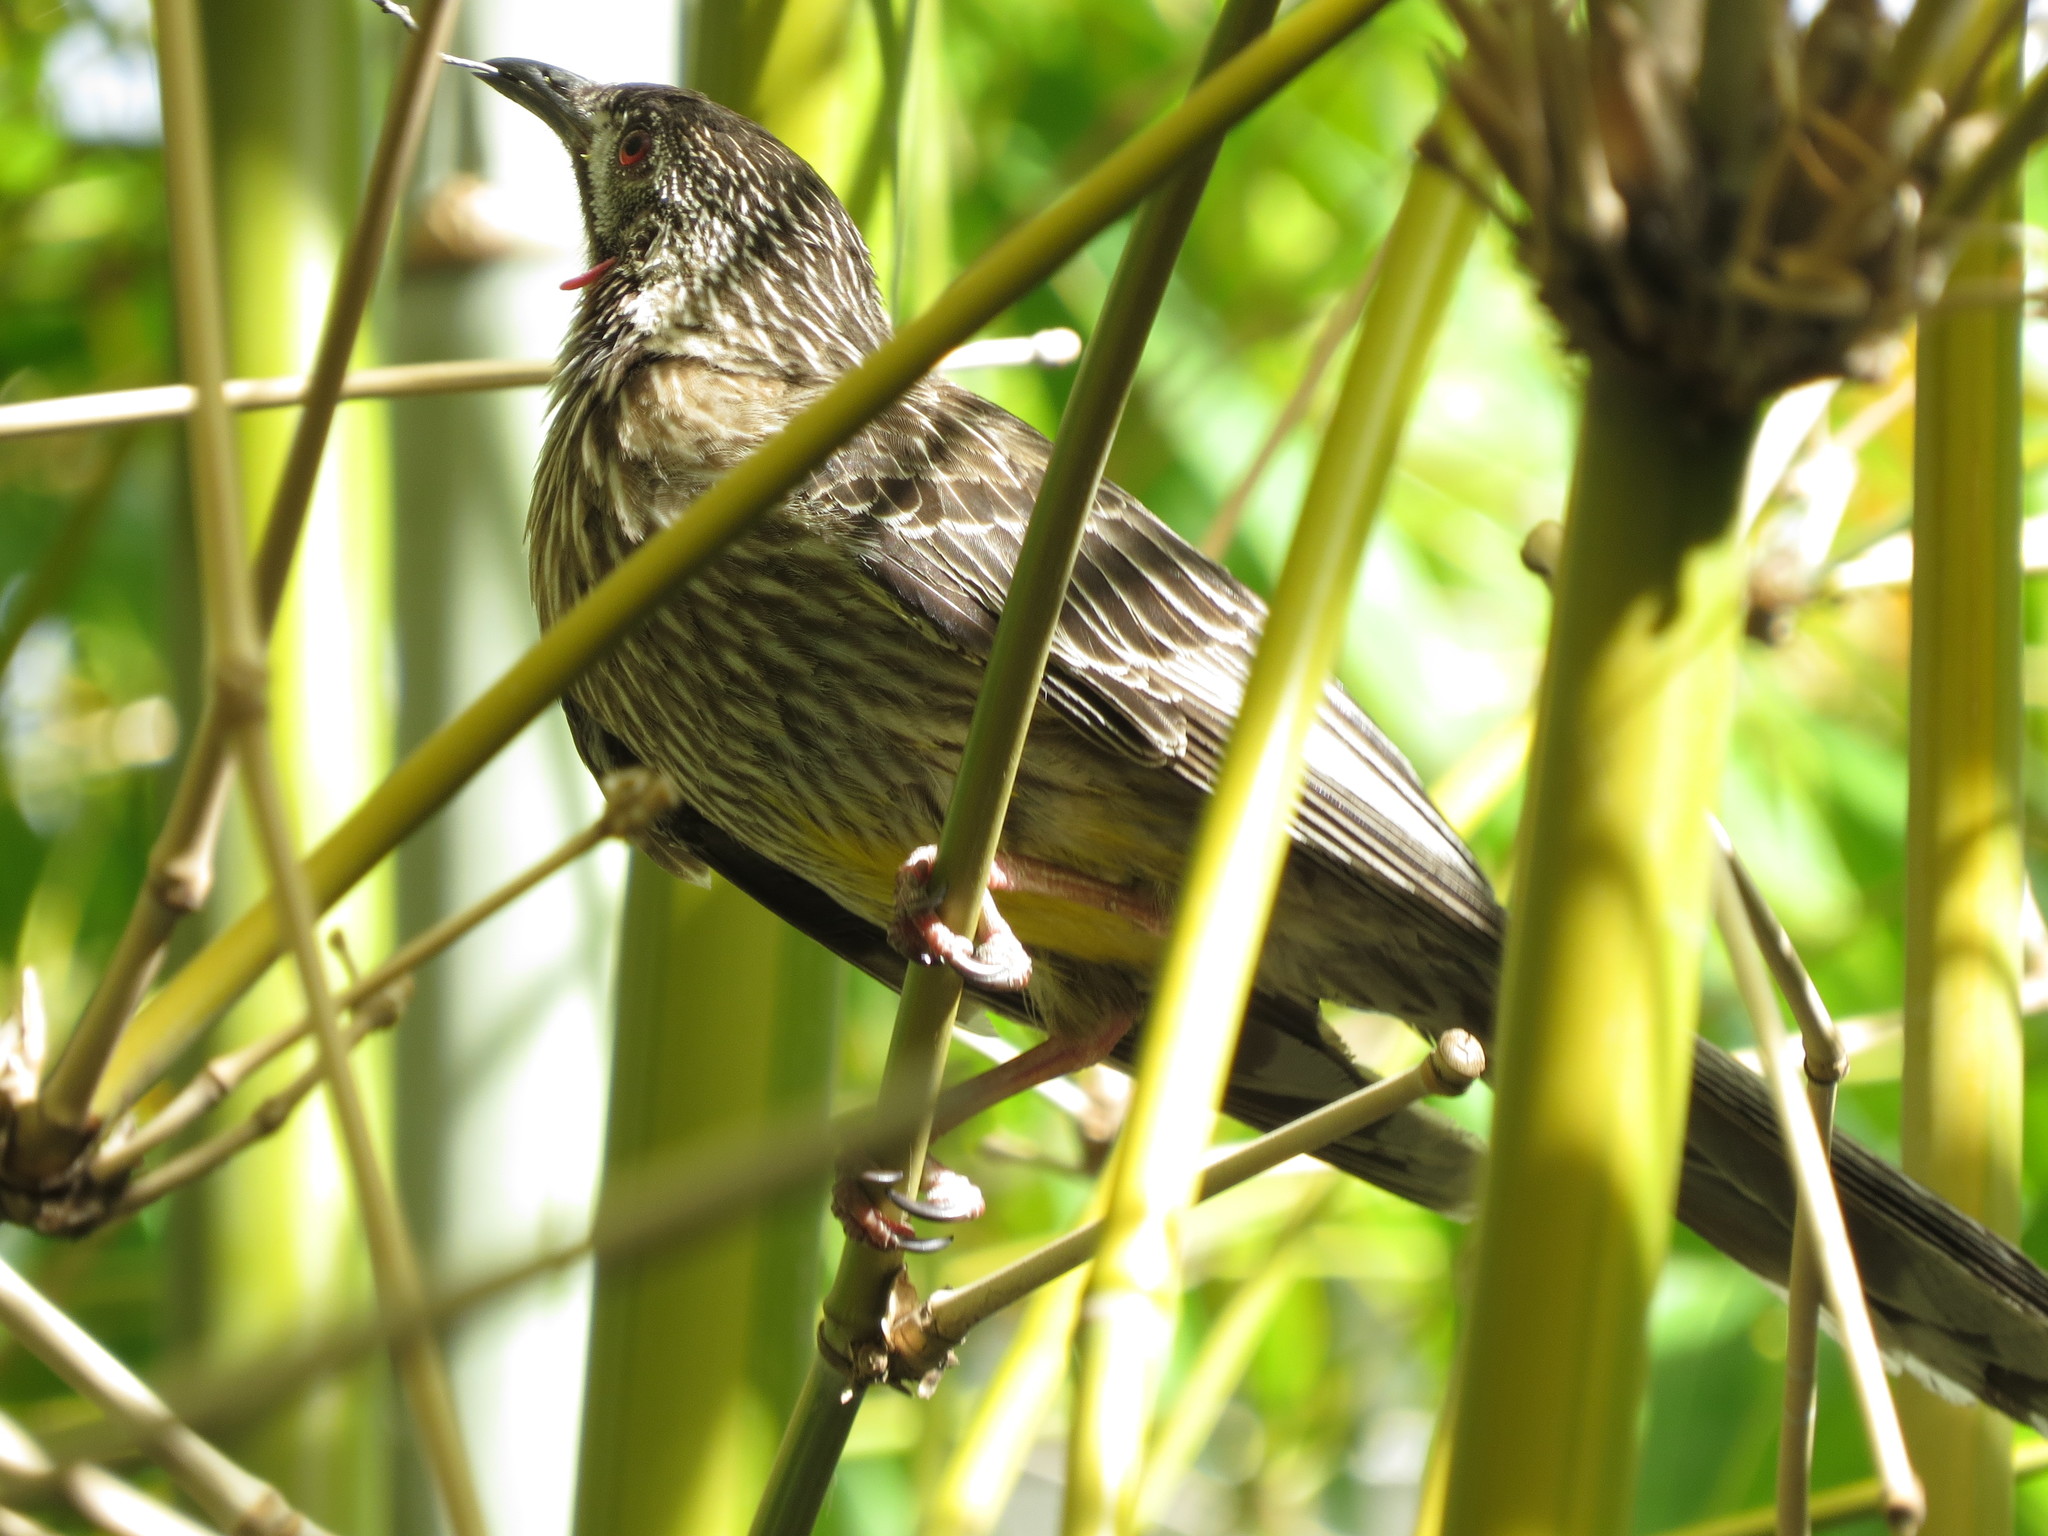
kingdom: Animalia
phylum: Chordata
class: Aves
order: Passeriformes
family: Meliphagidae
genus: Anthochaera
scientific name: Anthochaera carunculata
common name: Red wattlebird
